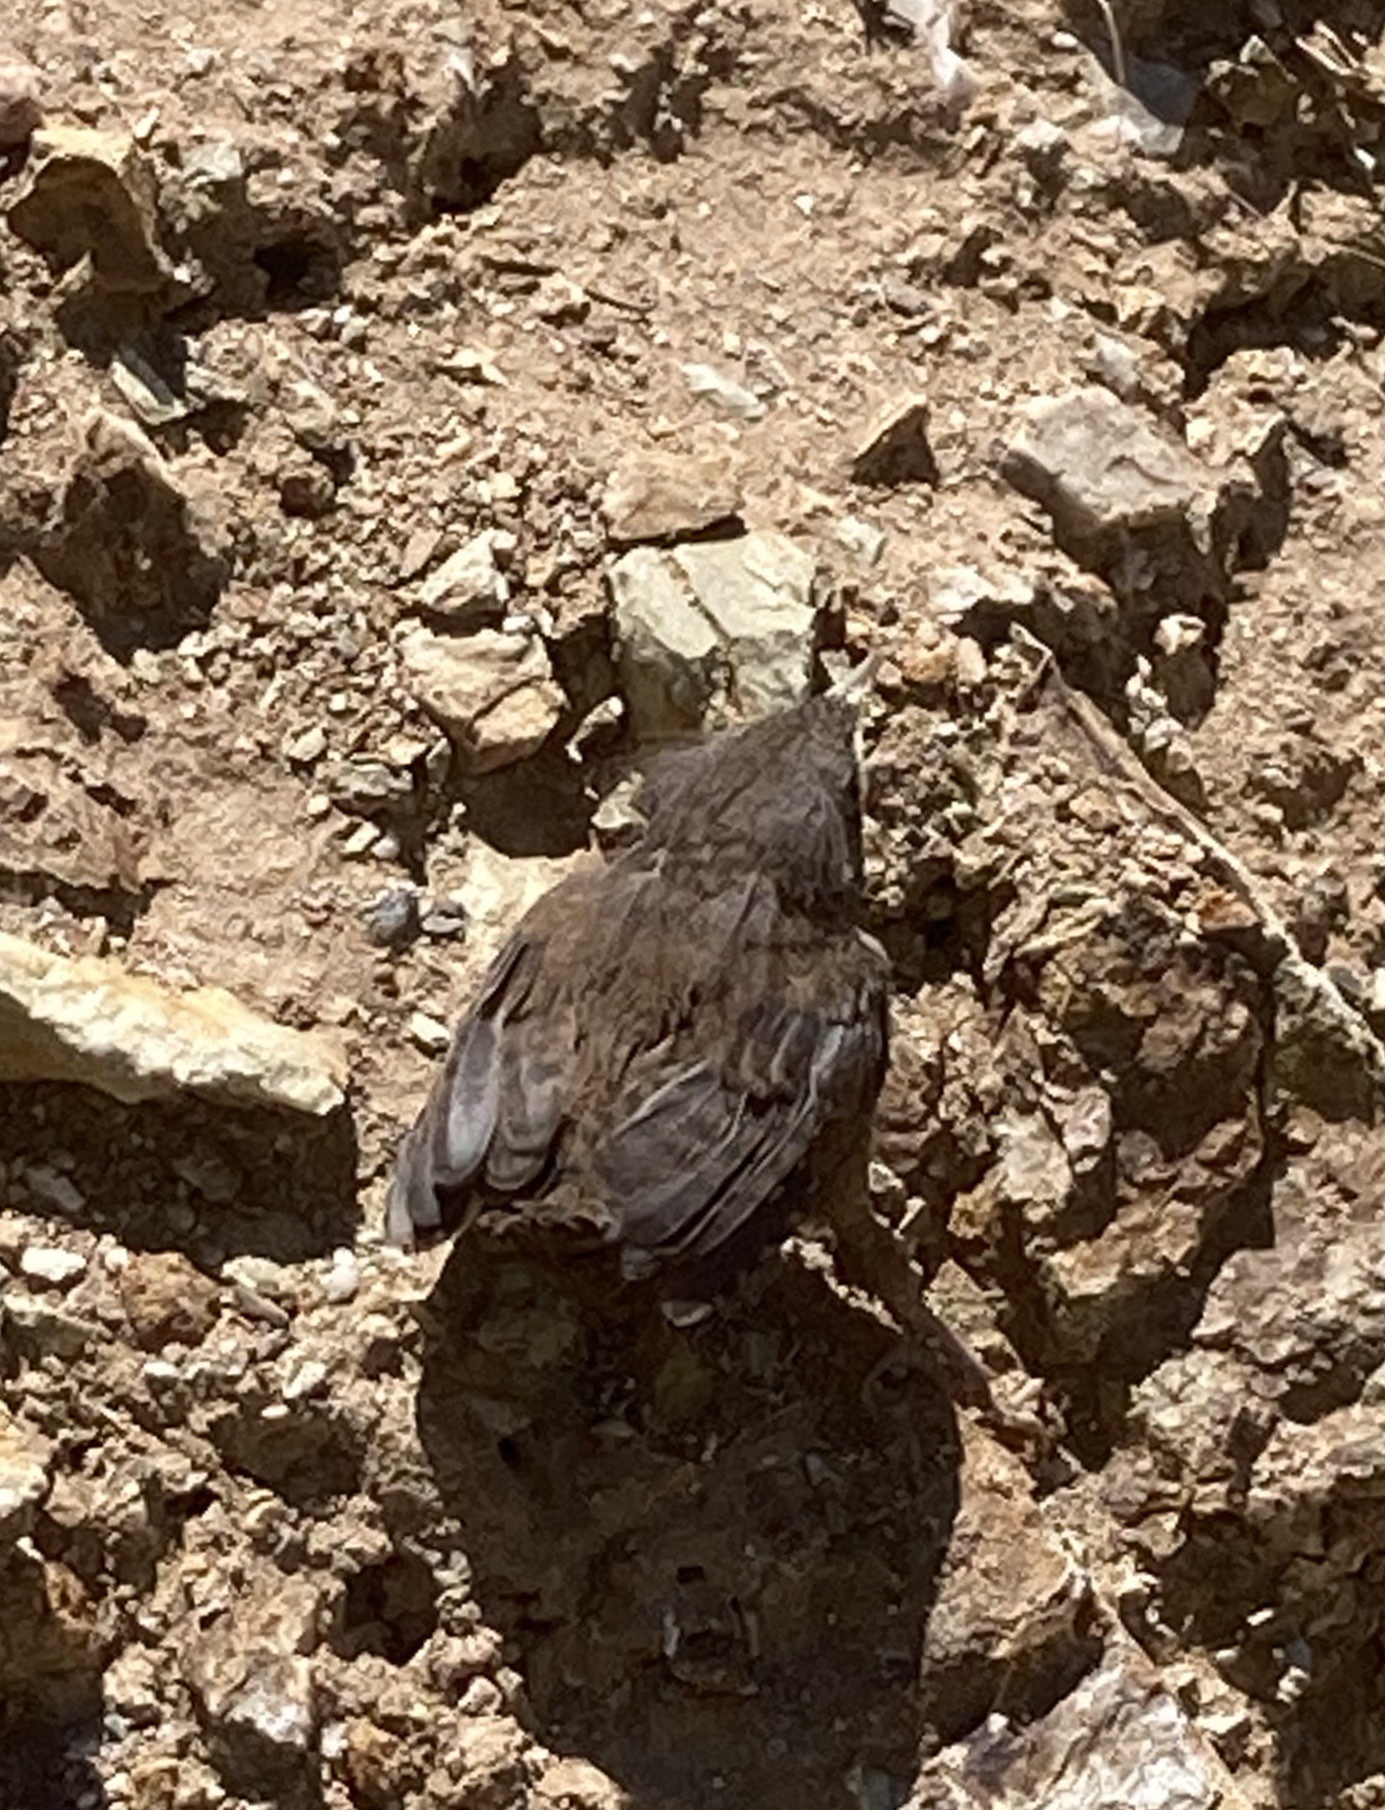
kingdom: Animalia
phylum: Chordata
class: Aves
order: Passeriformes
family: Troglodytidae
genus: Troglodytes
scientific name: Troglodytes troglodytes
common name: Eurasian wren
